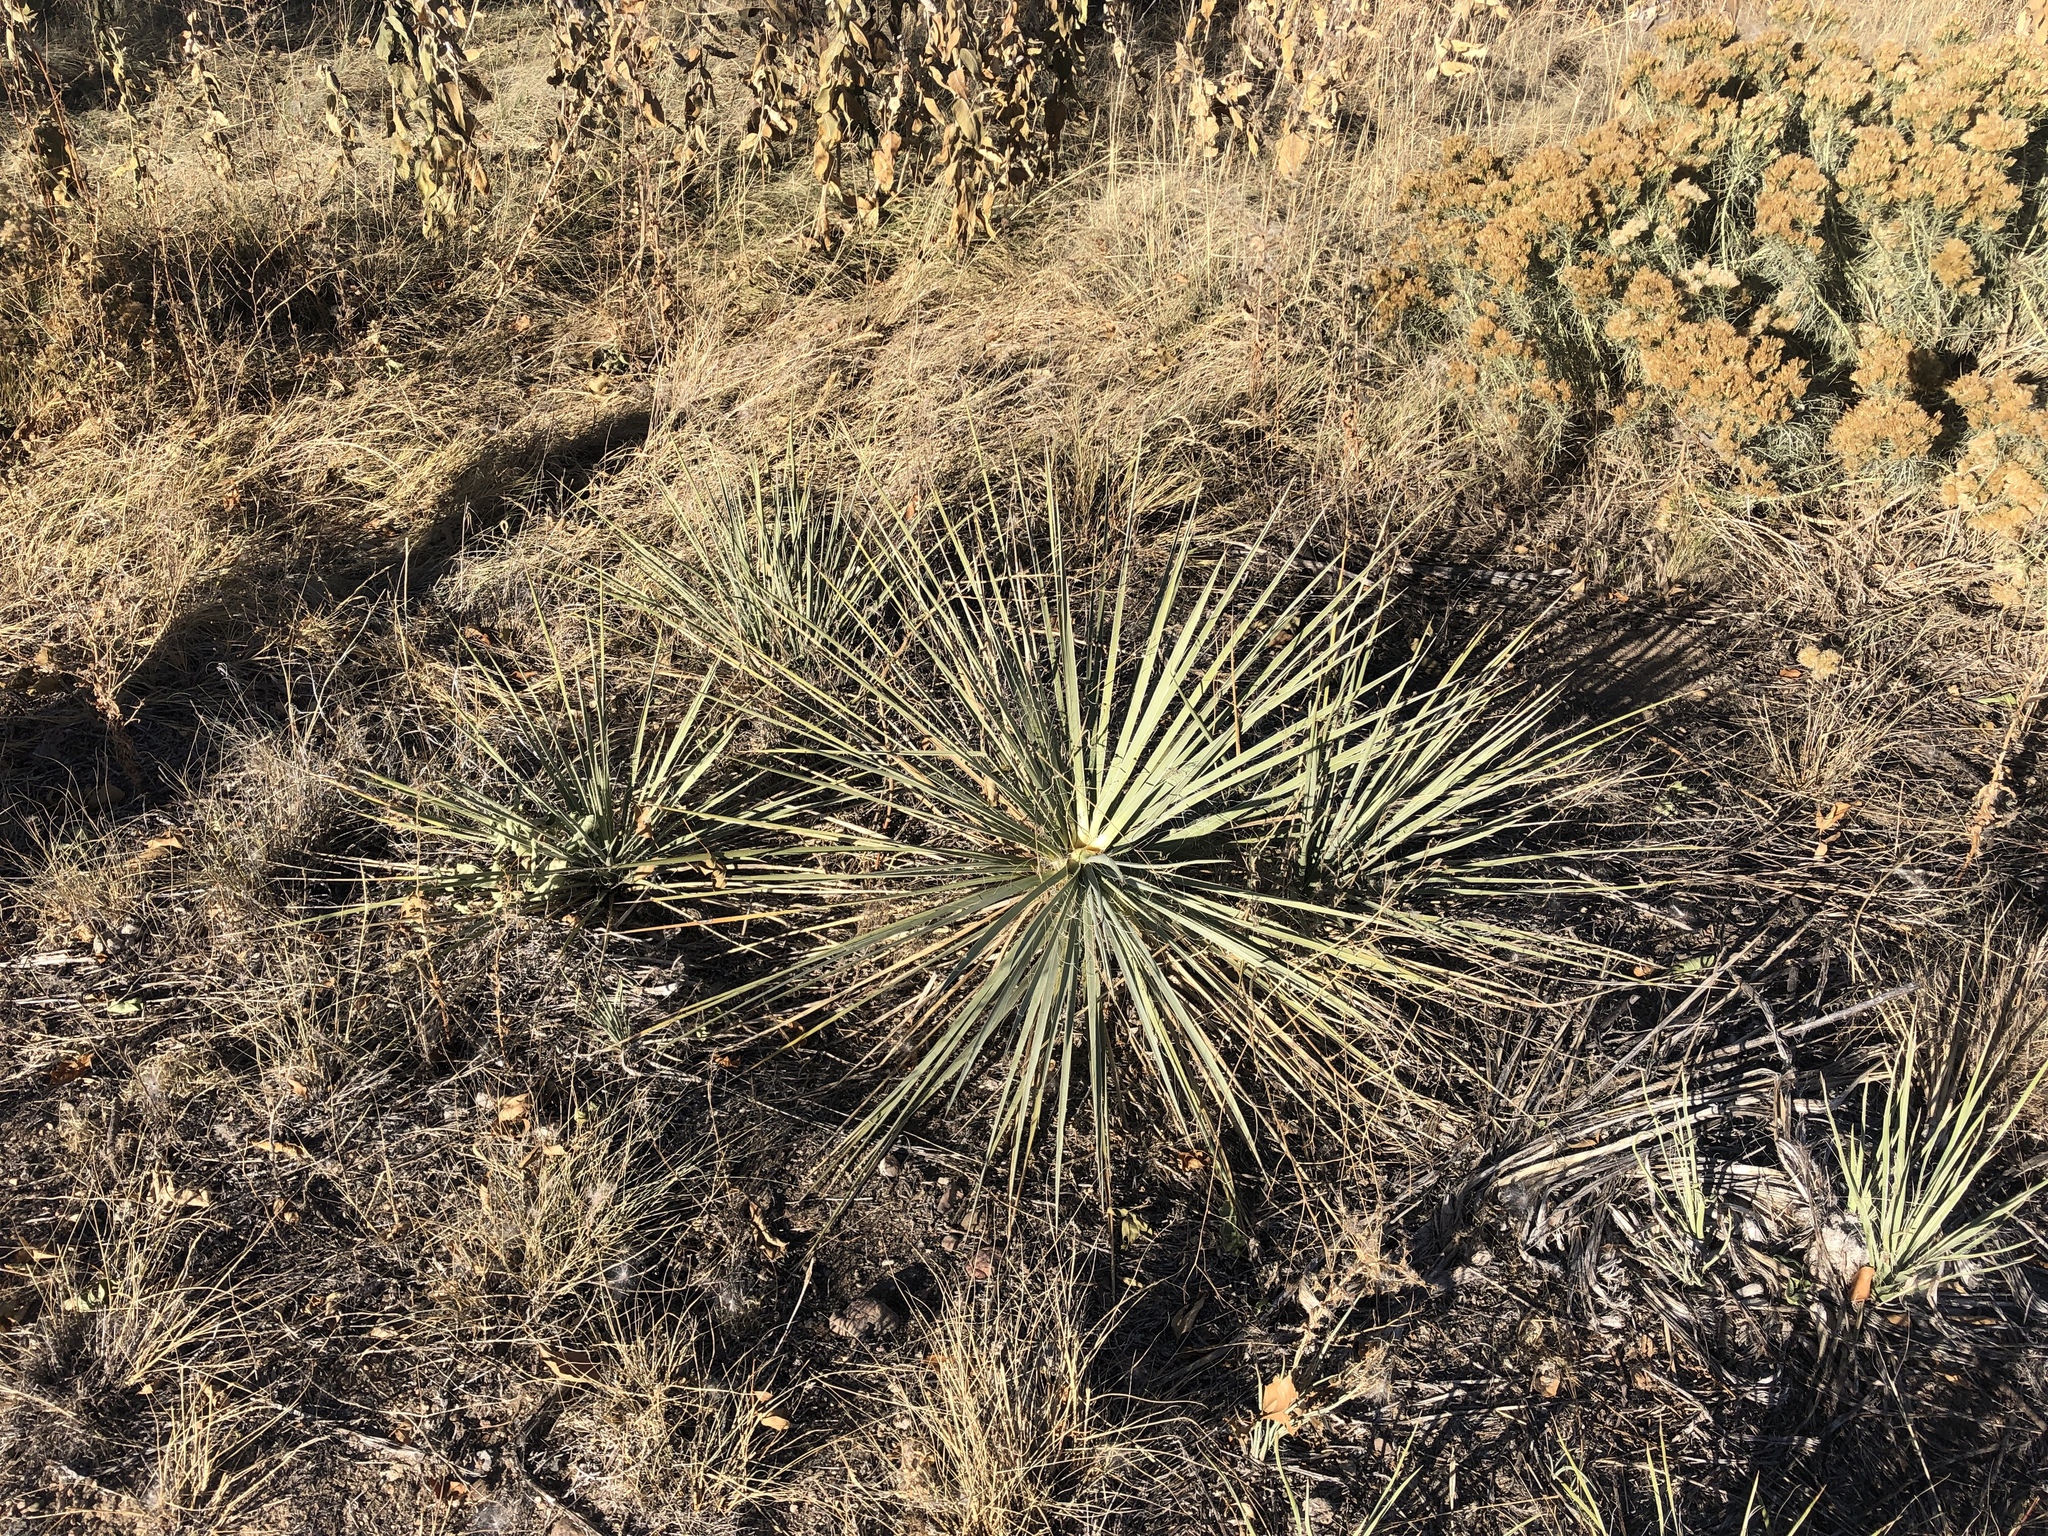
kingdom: Plantae
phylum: Tracheophyta
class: Liliopsida
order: Asparagales
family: Asparagaceae
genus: Yucca
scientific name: Yucca glauca
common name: Great plains yucca
